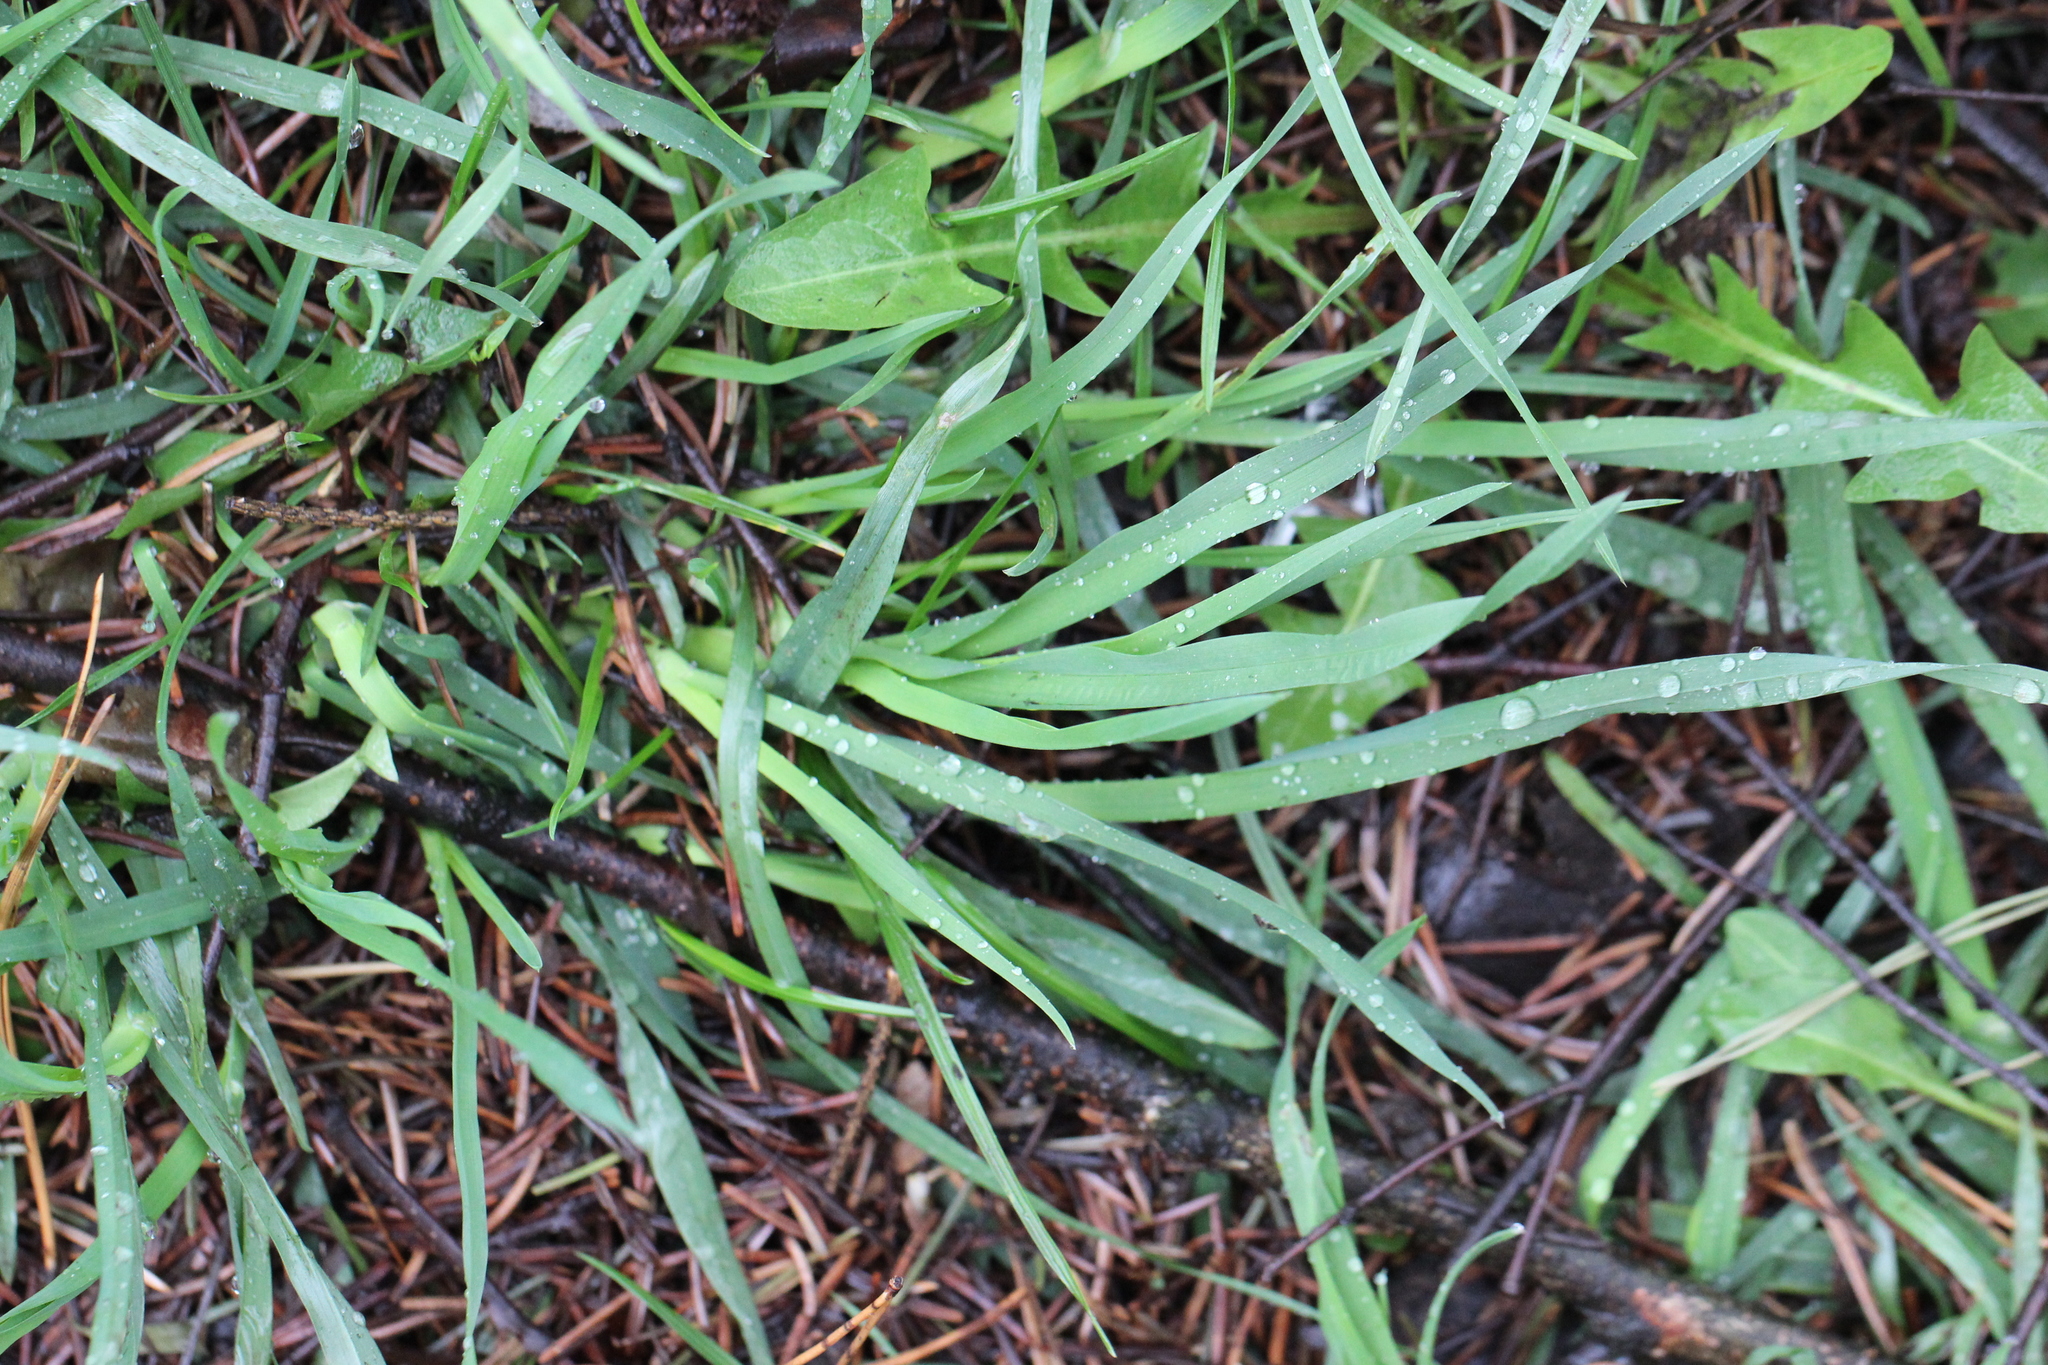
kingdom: Plantae
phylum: Tracheophyta
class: Liliopsida
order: Poales
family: Poaceae
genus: Dactylis
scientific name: Dactylis glomerata
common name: Orchardgrass
